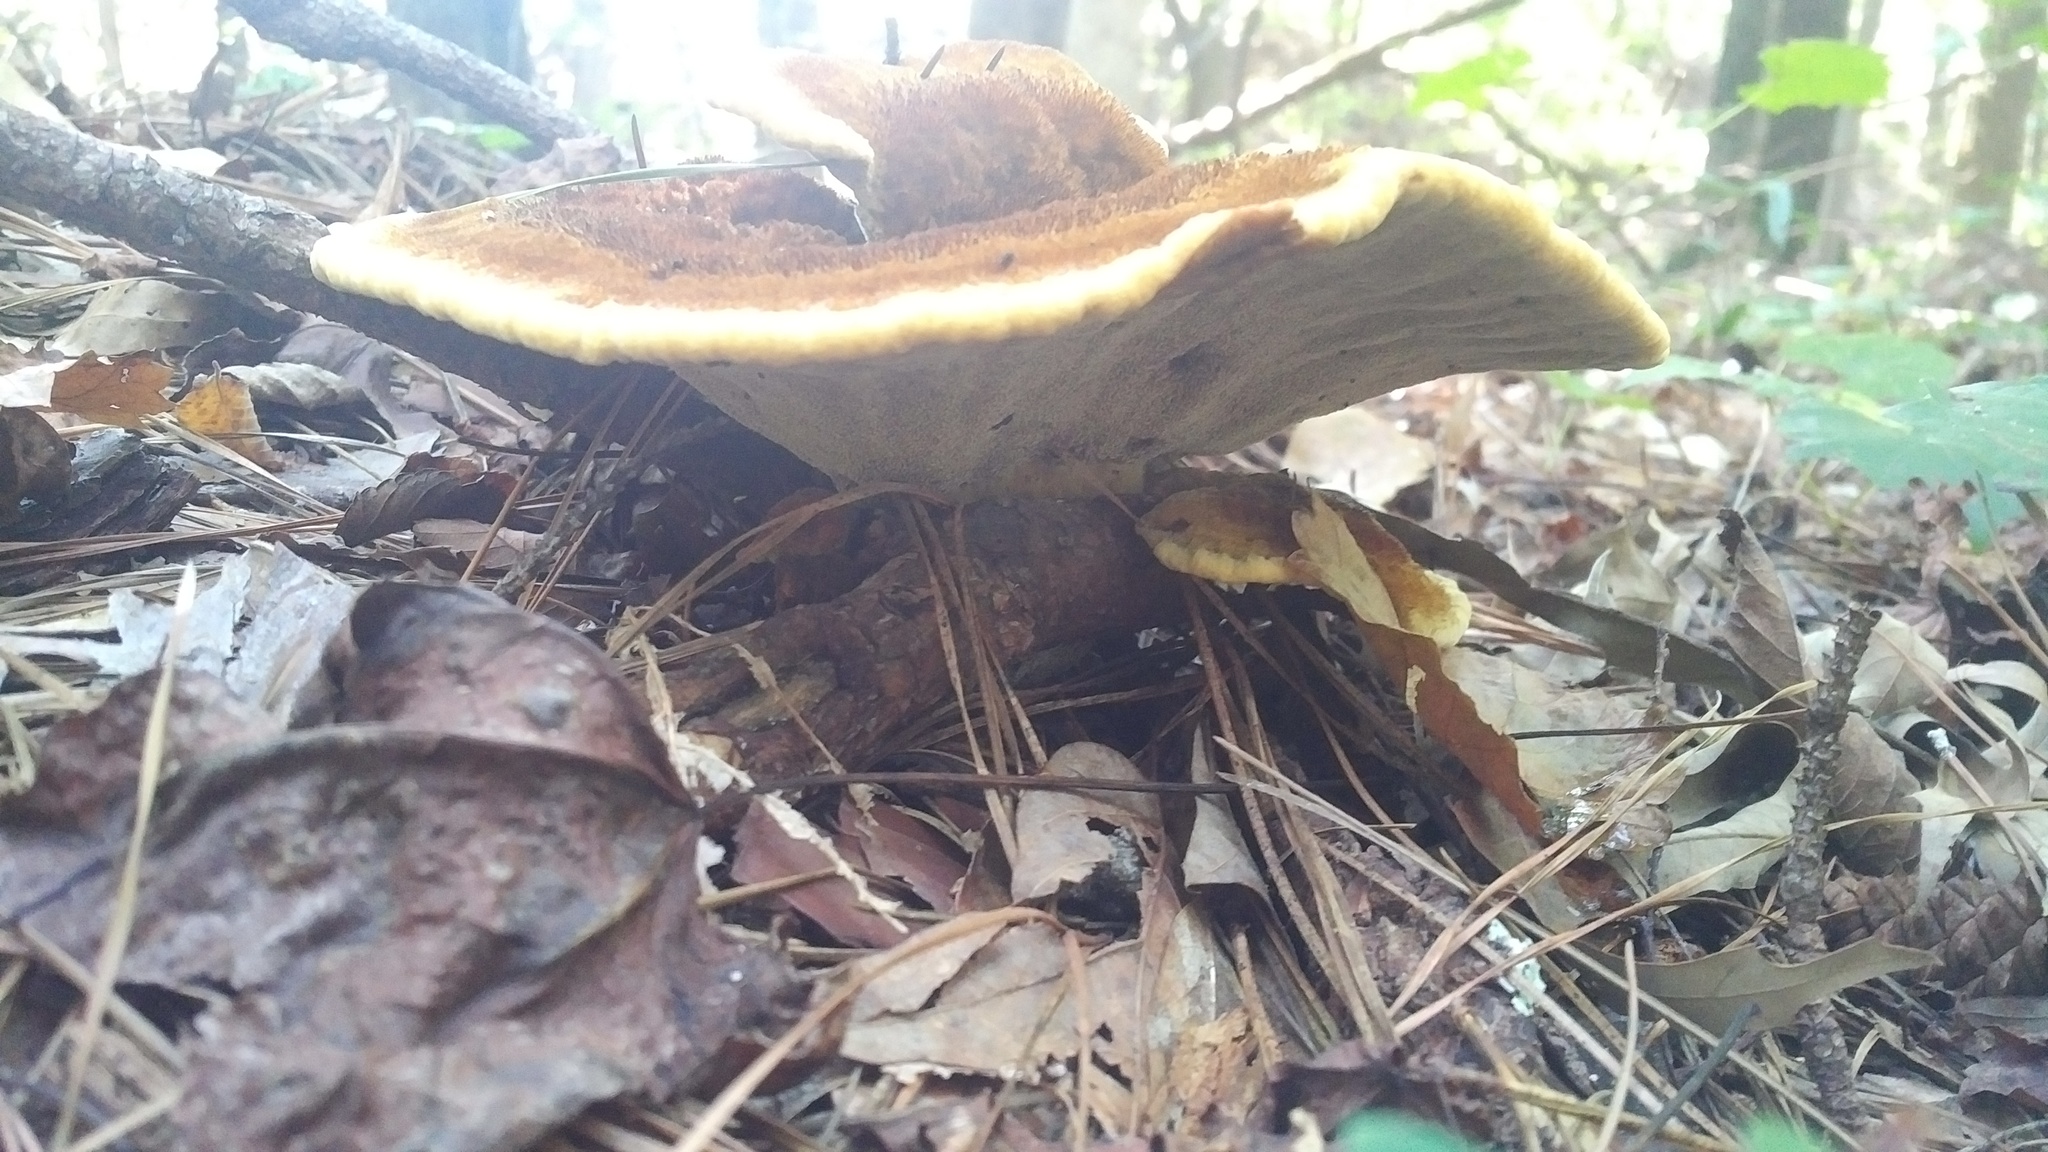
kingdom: Fungi
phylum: Basidiomycota
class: Agaricomycetes
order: Polyporales
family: Laetiporaceae
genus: Phaeolus
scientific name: Phaeolus schweinitzii
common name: Dyer's mazegill
